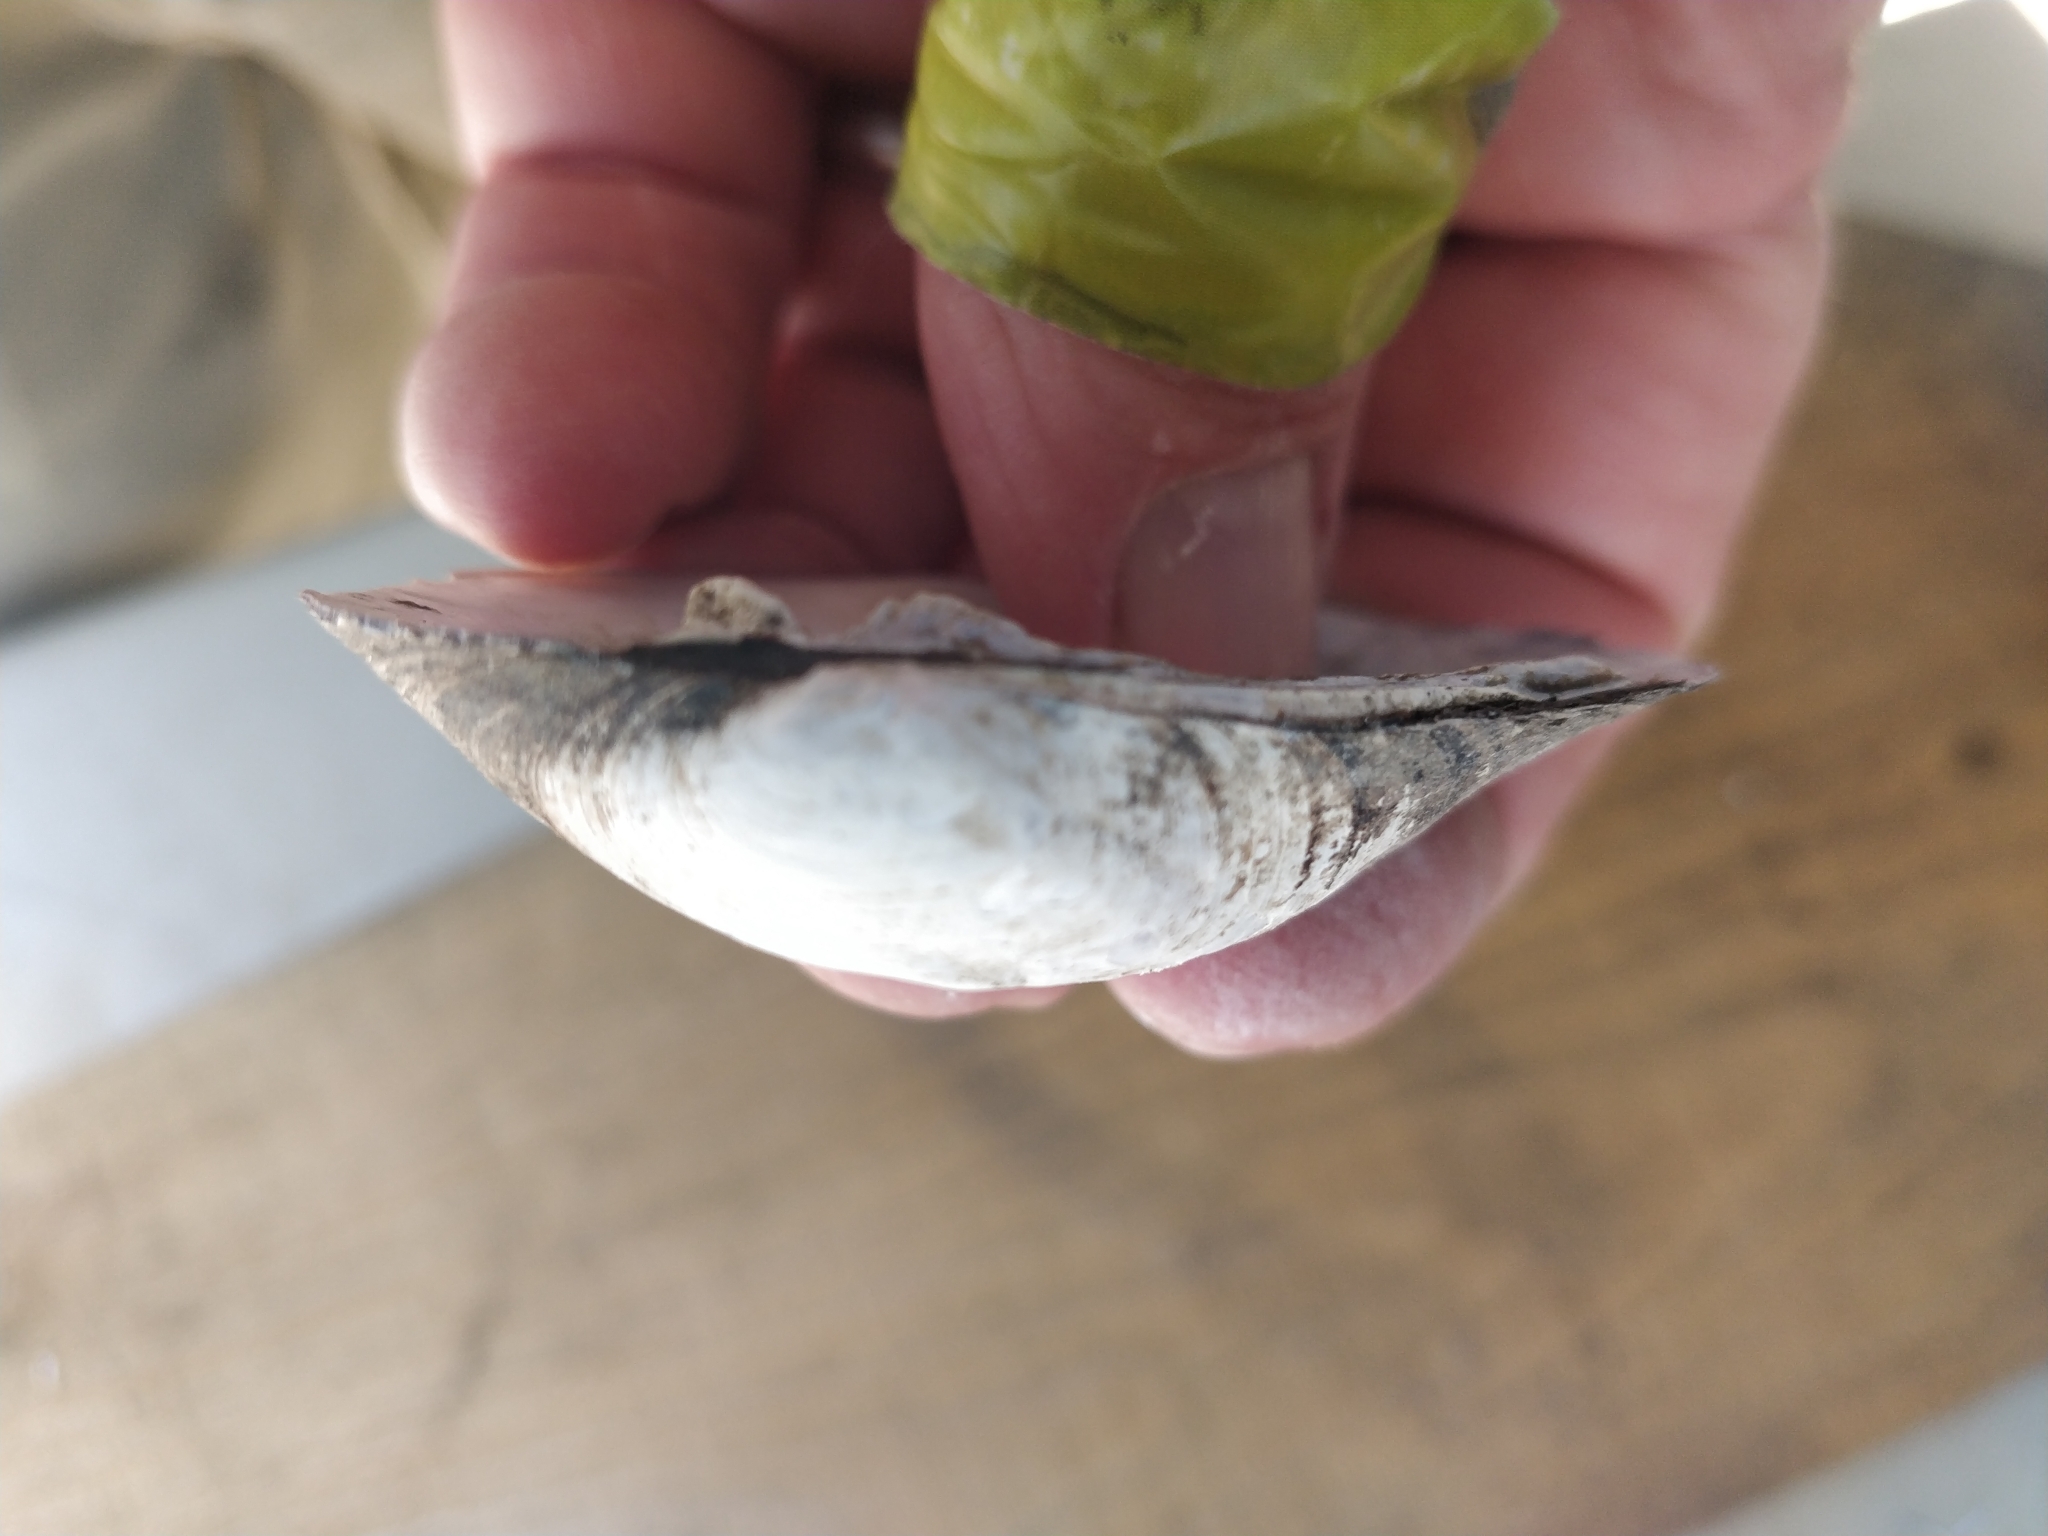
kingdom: Animalia
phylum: Mollusca
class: Bivalvia
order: Unionida
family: Unionidae
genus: Amblema
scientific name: Amblema plicata
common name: Threeridge
